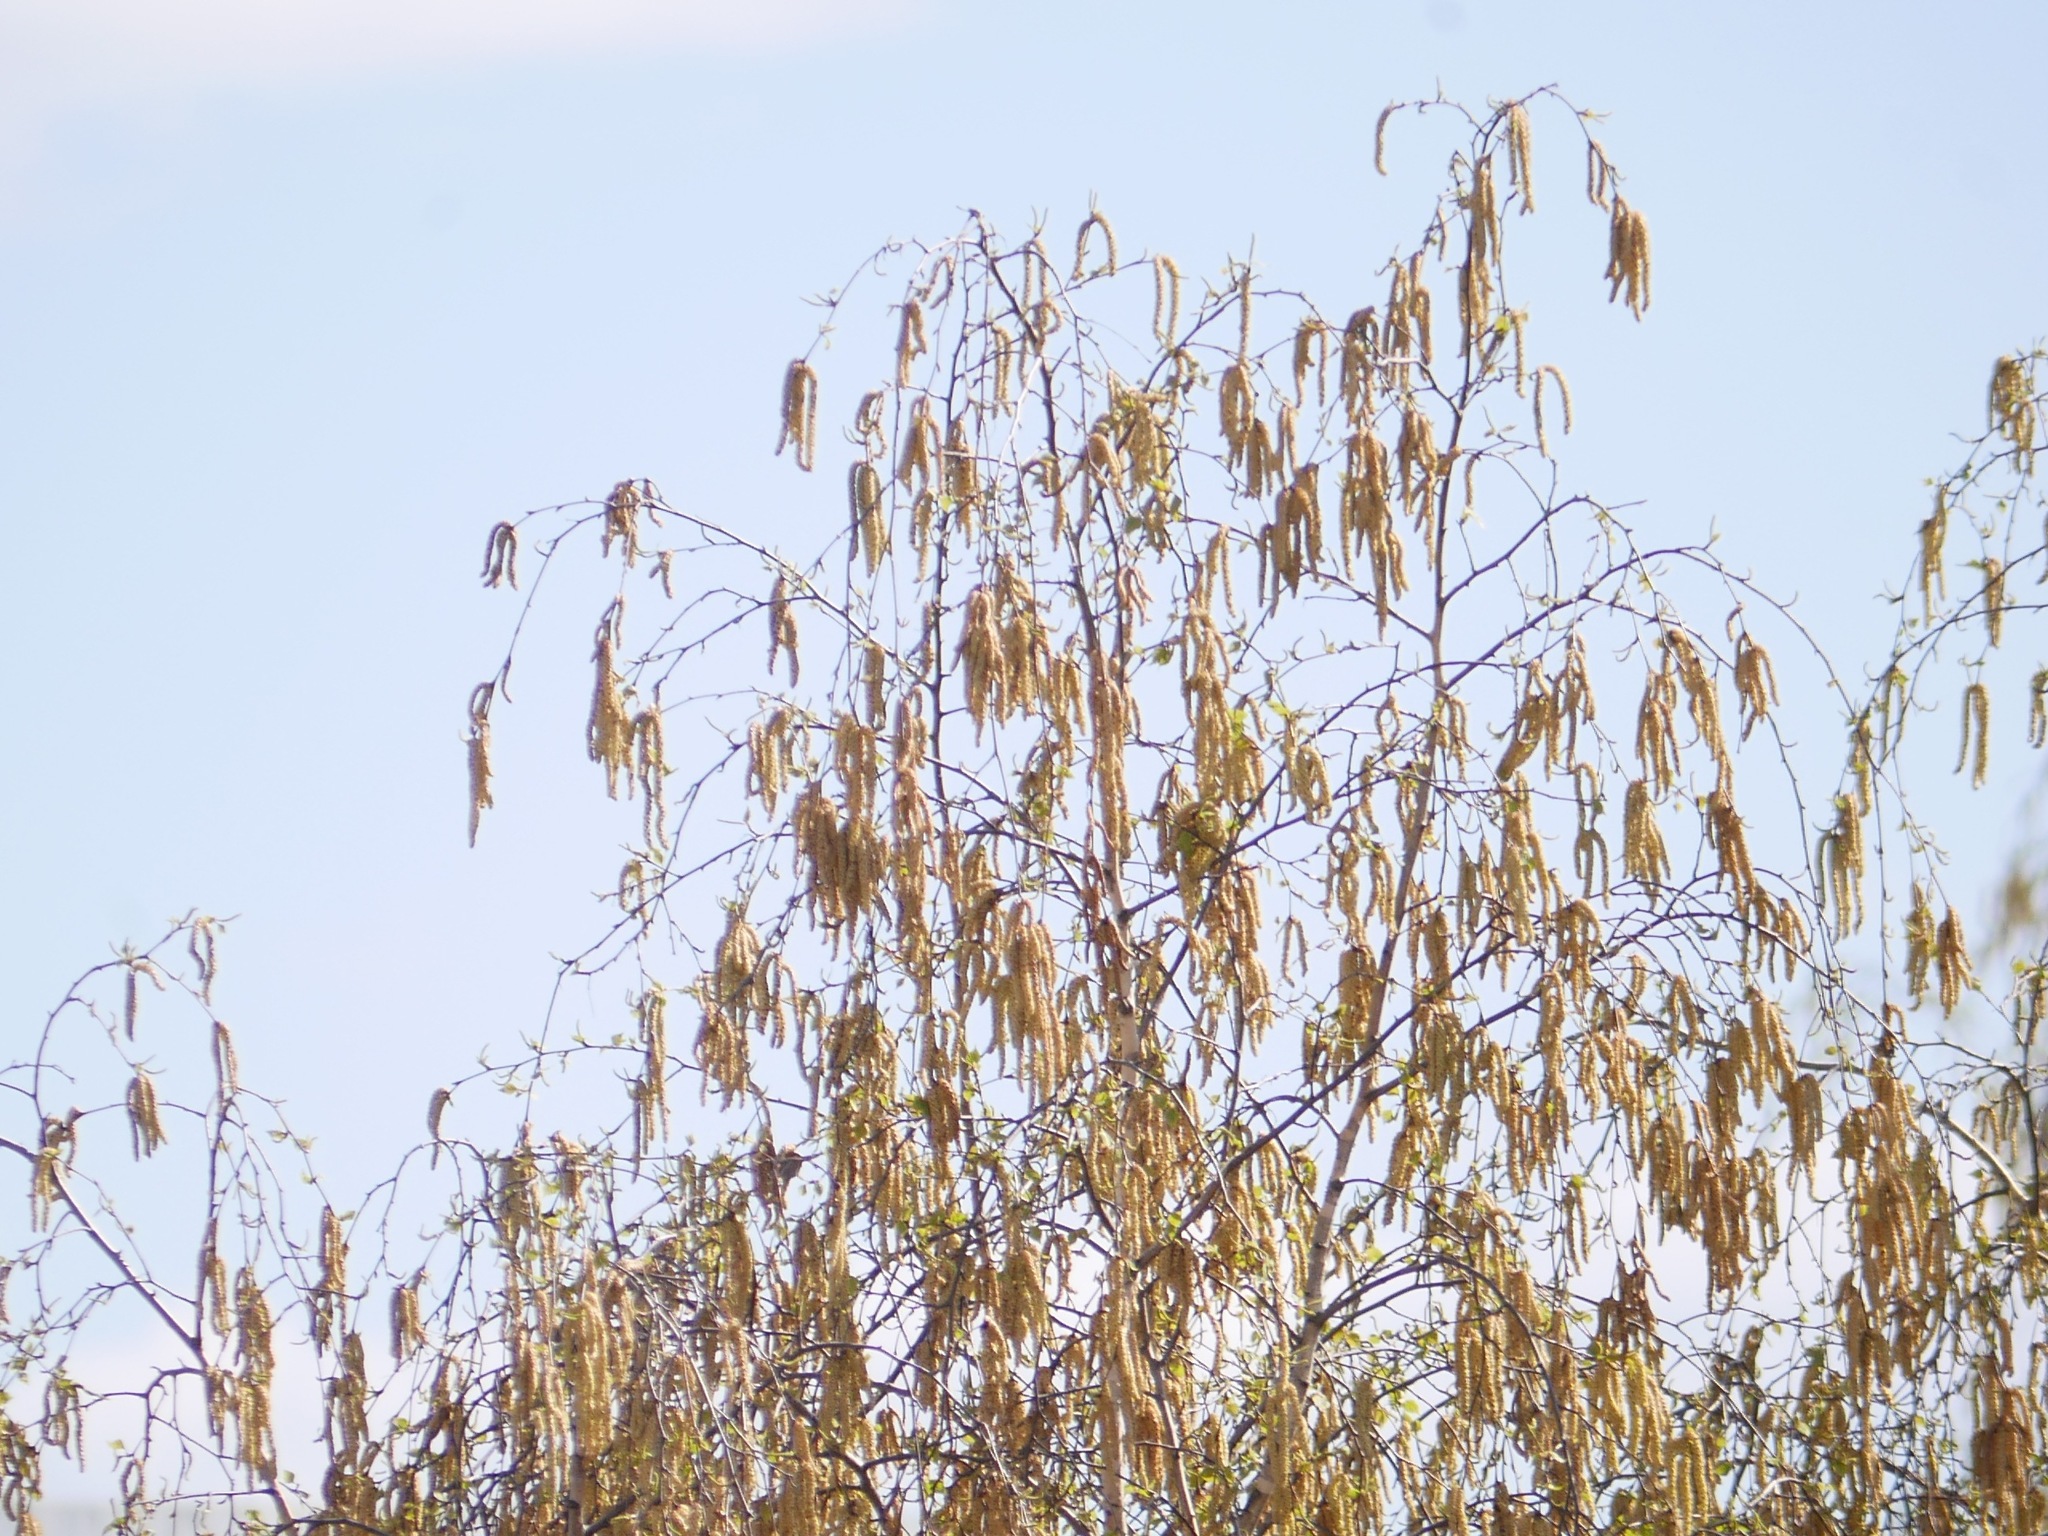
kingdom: Plantae
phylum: Tracheophyta
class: Magnoliopsida
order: Fagales
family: Betulaceae
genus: Betula
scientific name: Betula pendula
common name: Silver birch
